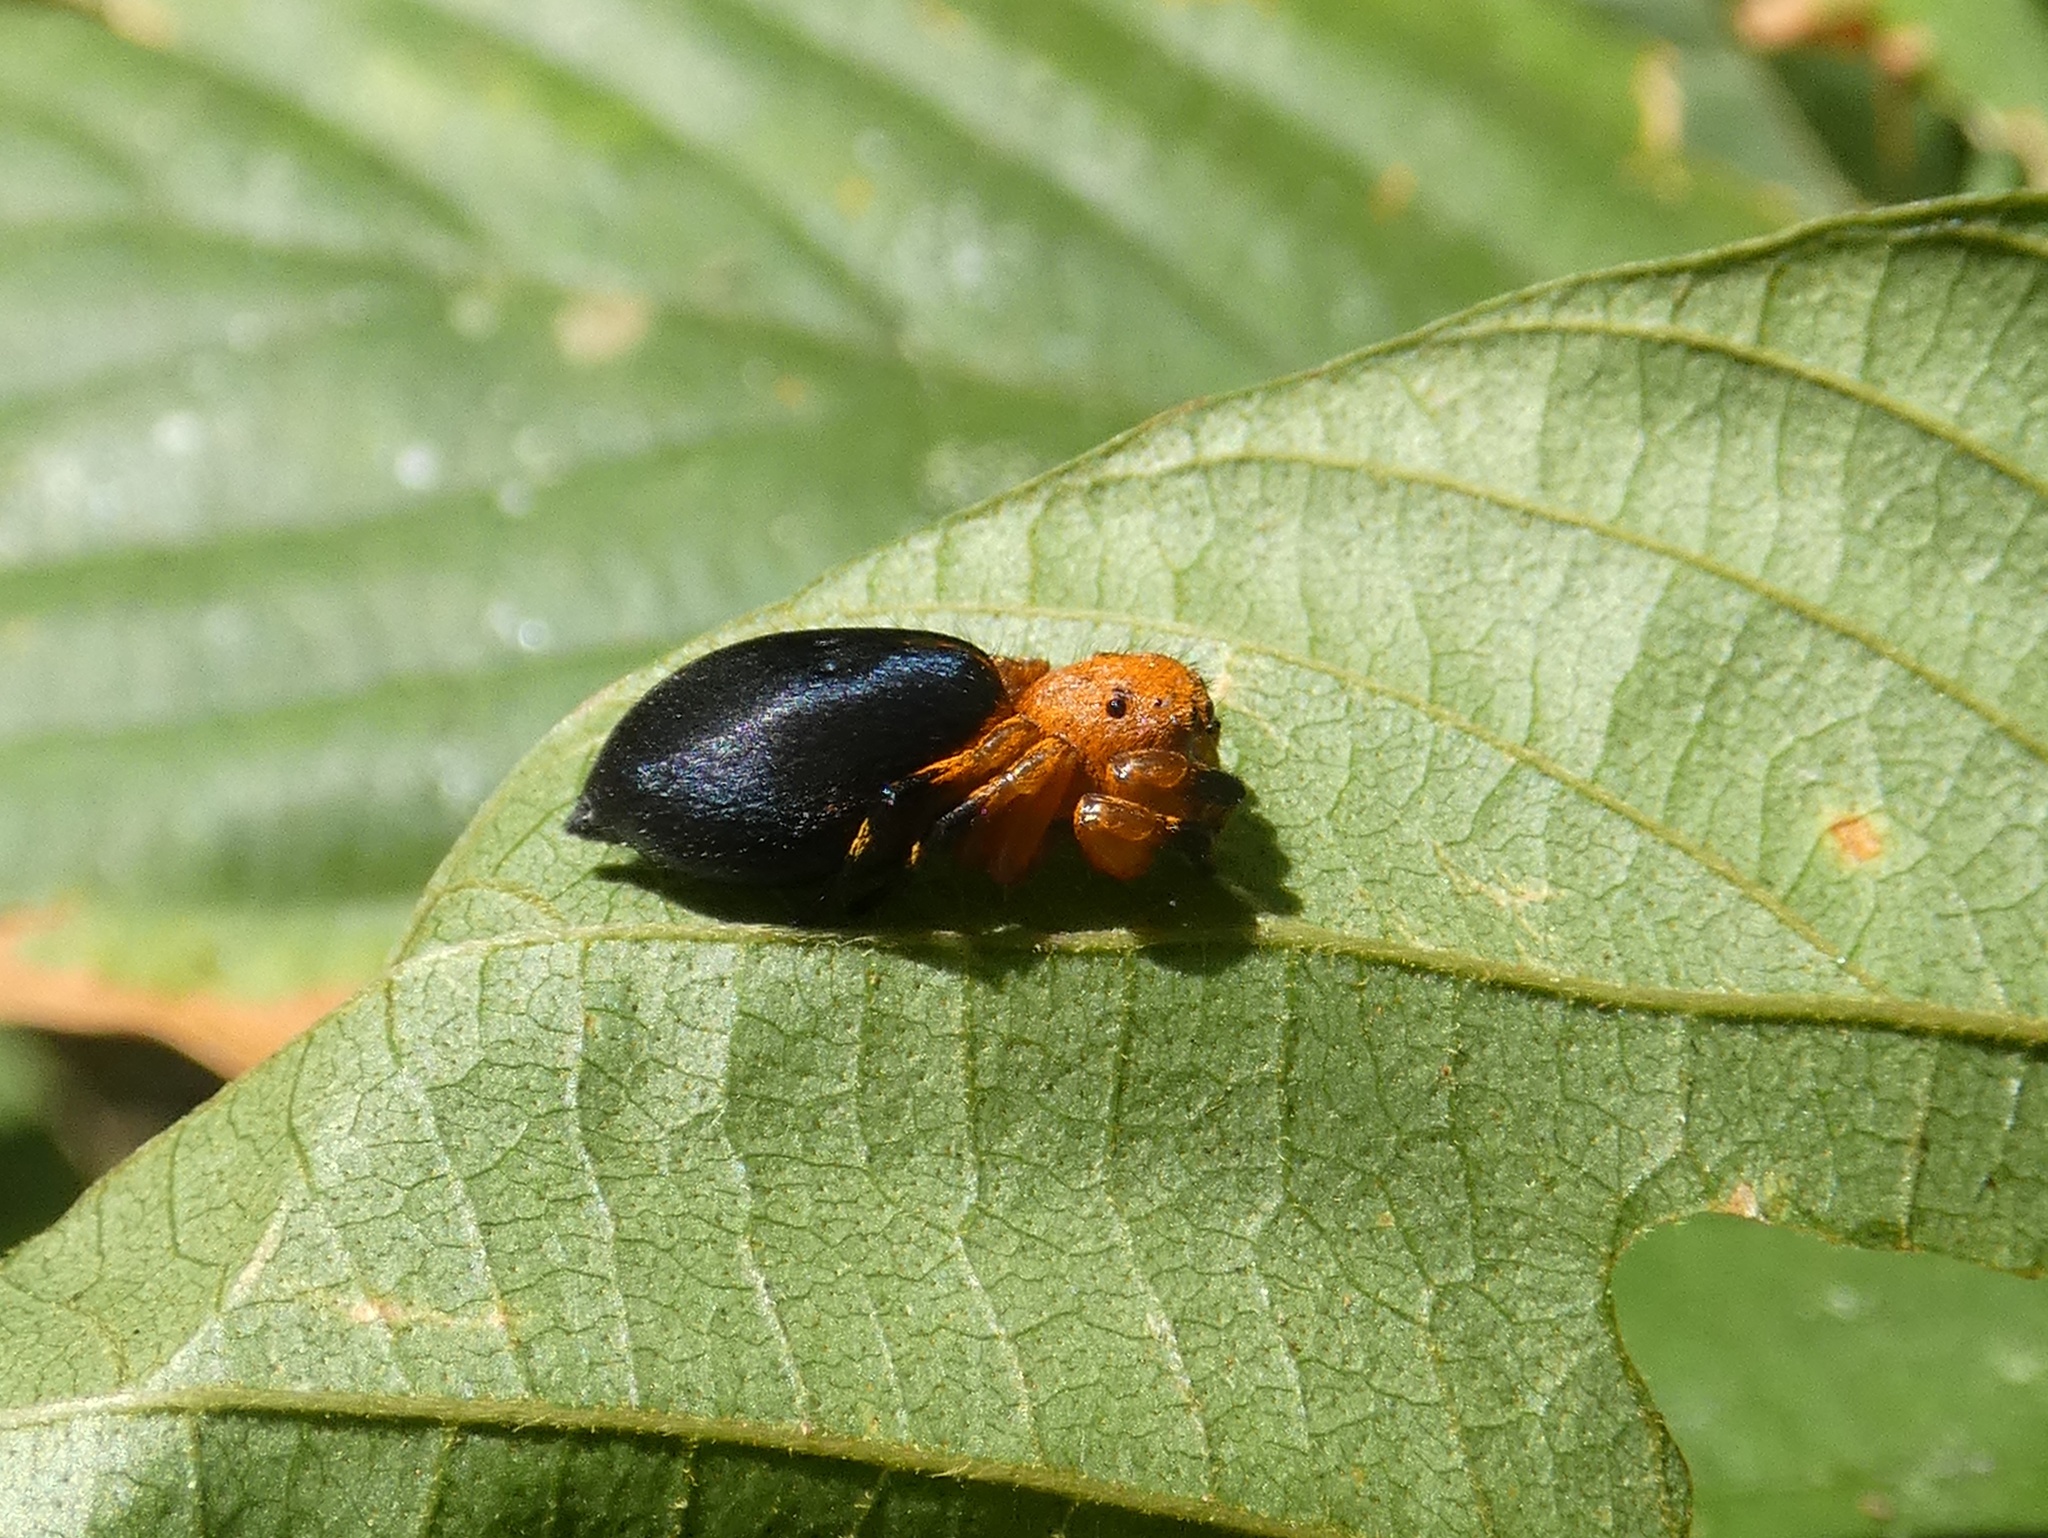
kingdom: Animalia
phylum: Arthropoda
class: Arachnida
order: Araneae
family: Salticidae
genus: Phiale
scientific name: Phiale mimica
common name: Jumping spiders
